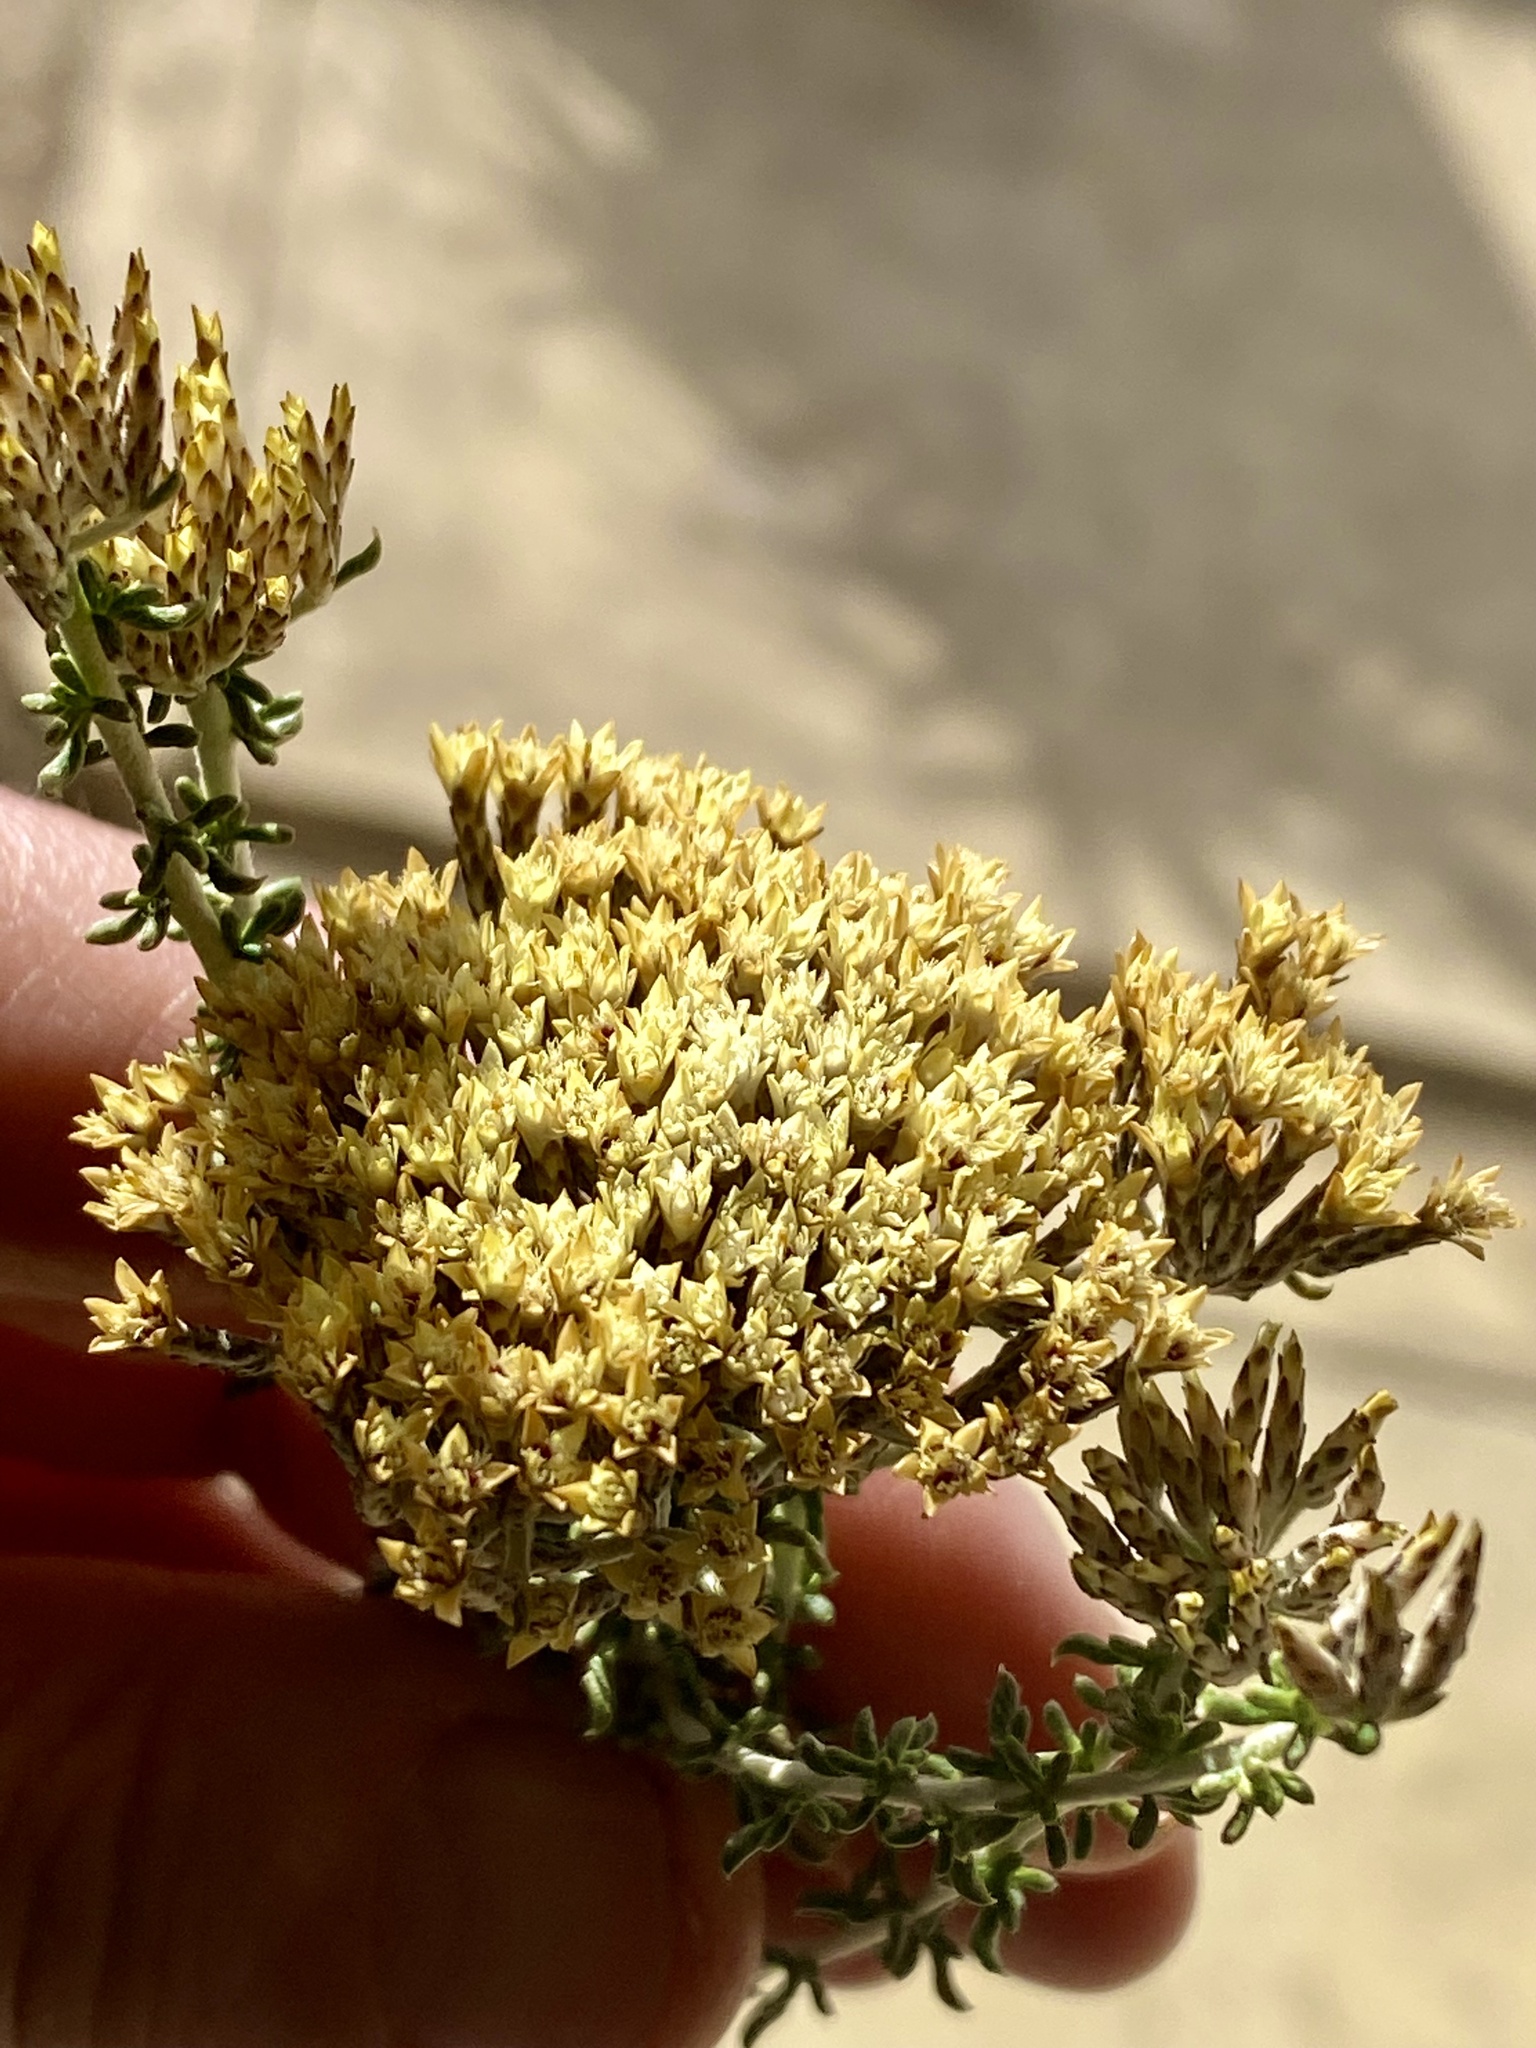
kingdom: Plantae
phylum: Tracheophyta
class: Magnoliopsida
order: Asterales
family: Asteraceae
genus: Metalasia
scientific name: Metalasia muricata
